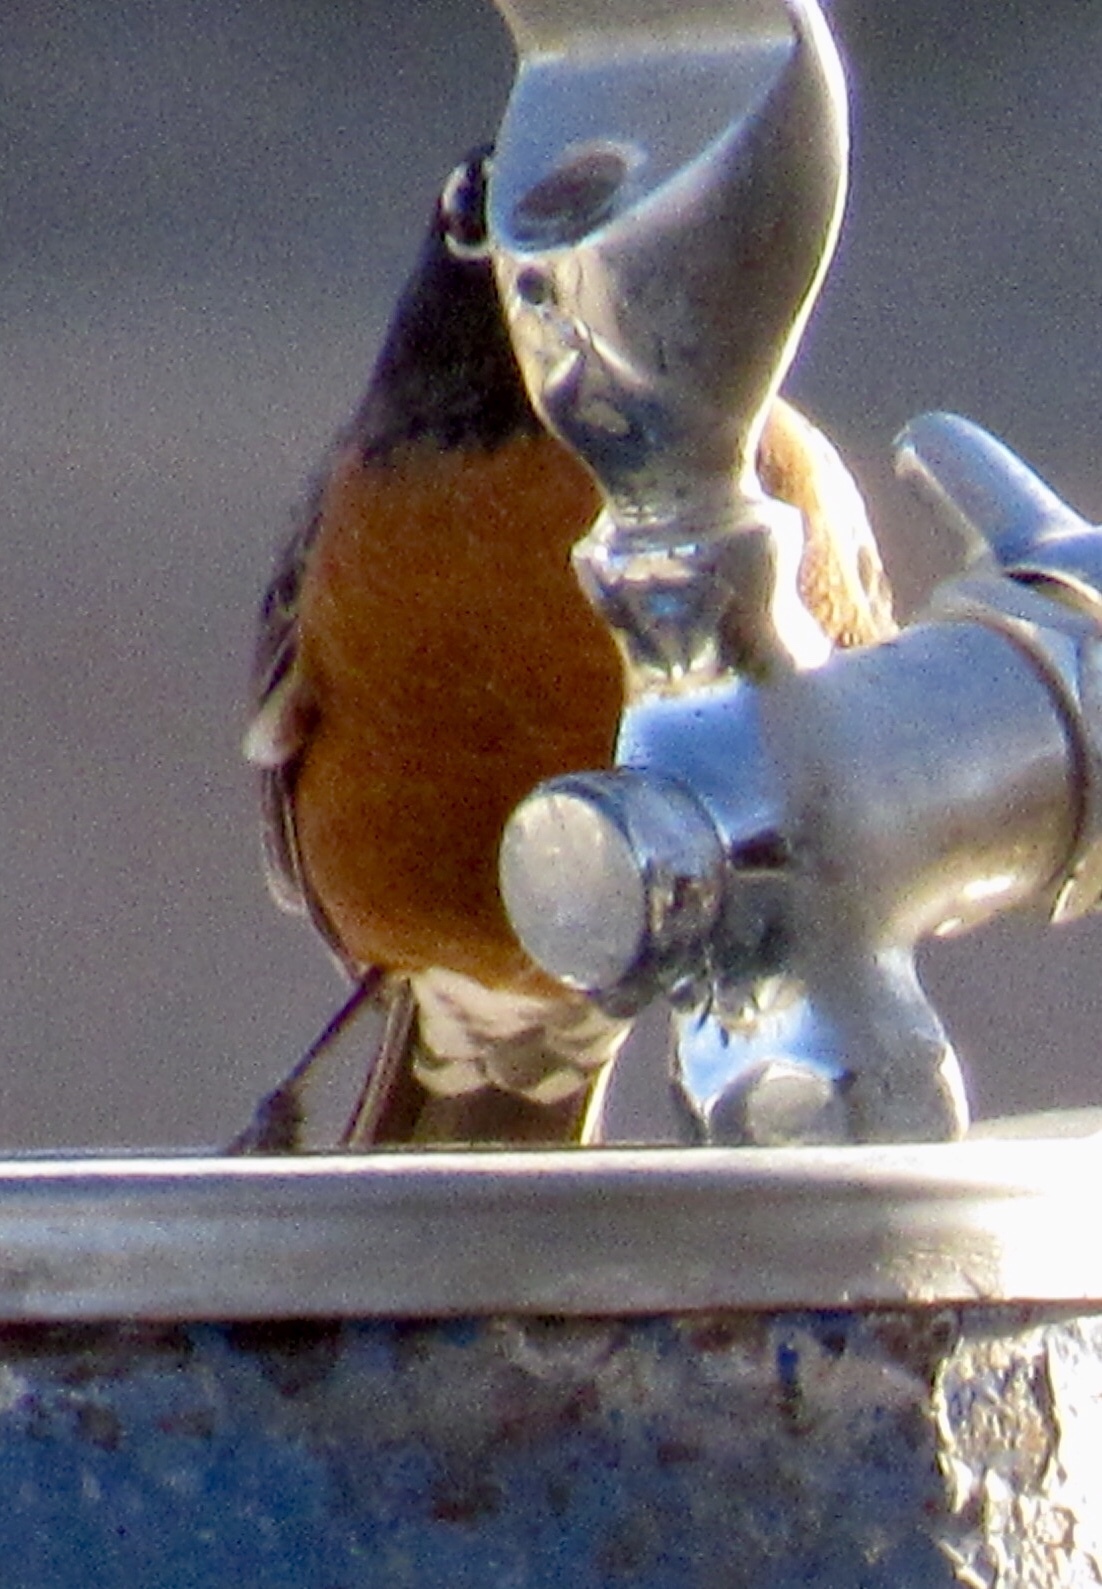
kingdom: Animalia
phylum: Chordata
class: Aves
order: Passeriformes
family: Turdidae
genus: Turdus
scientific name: Turdus migratorius
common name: American robin
